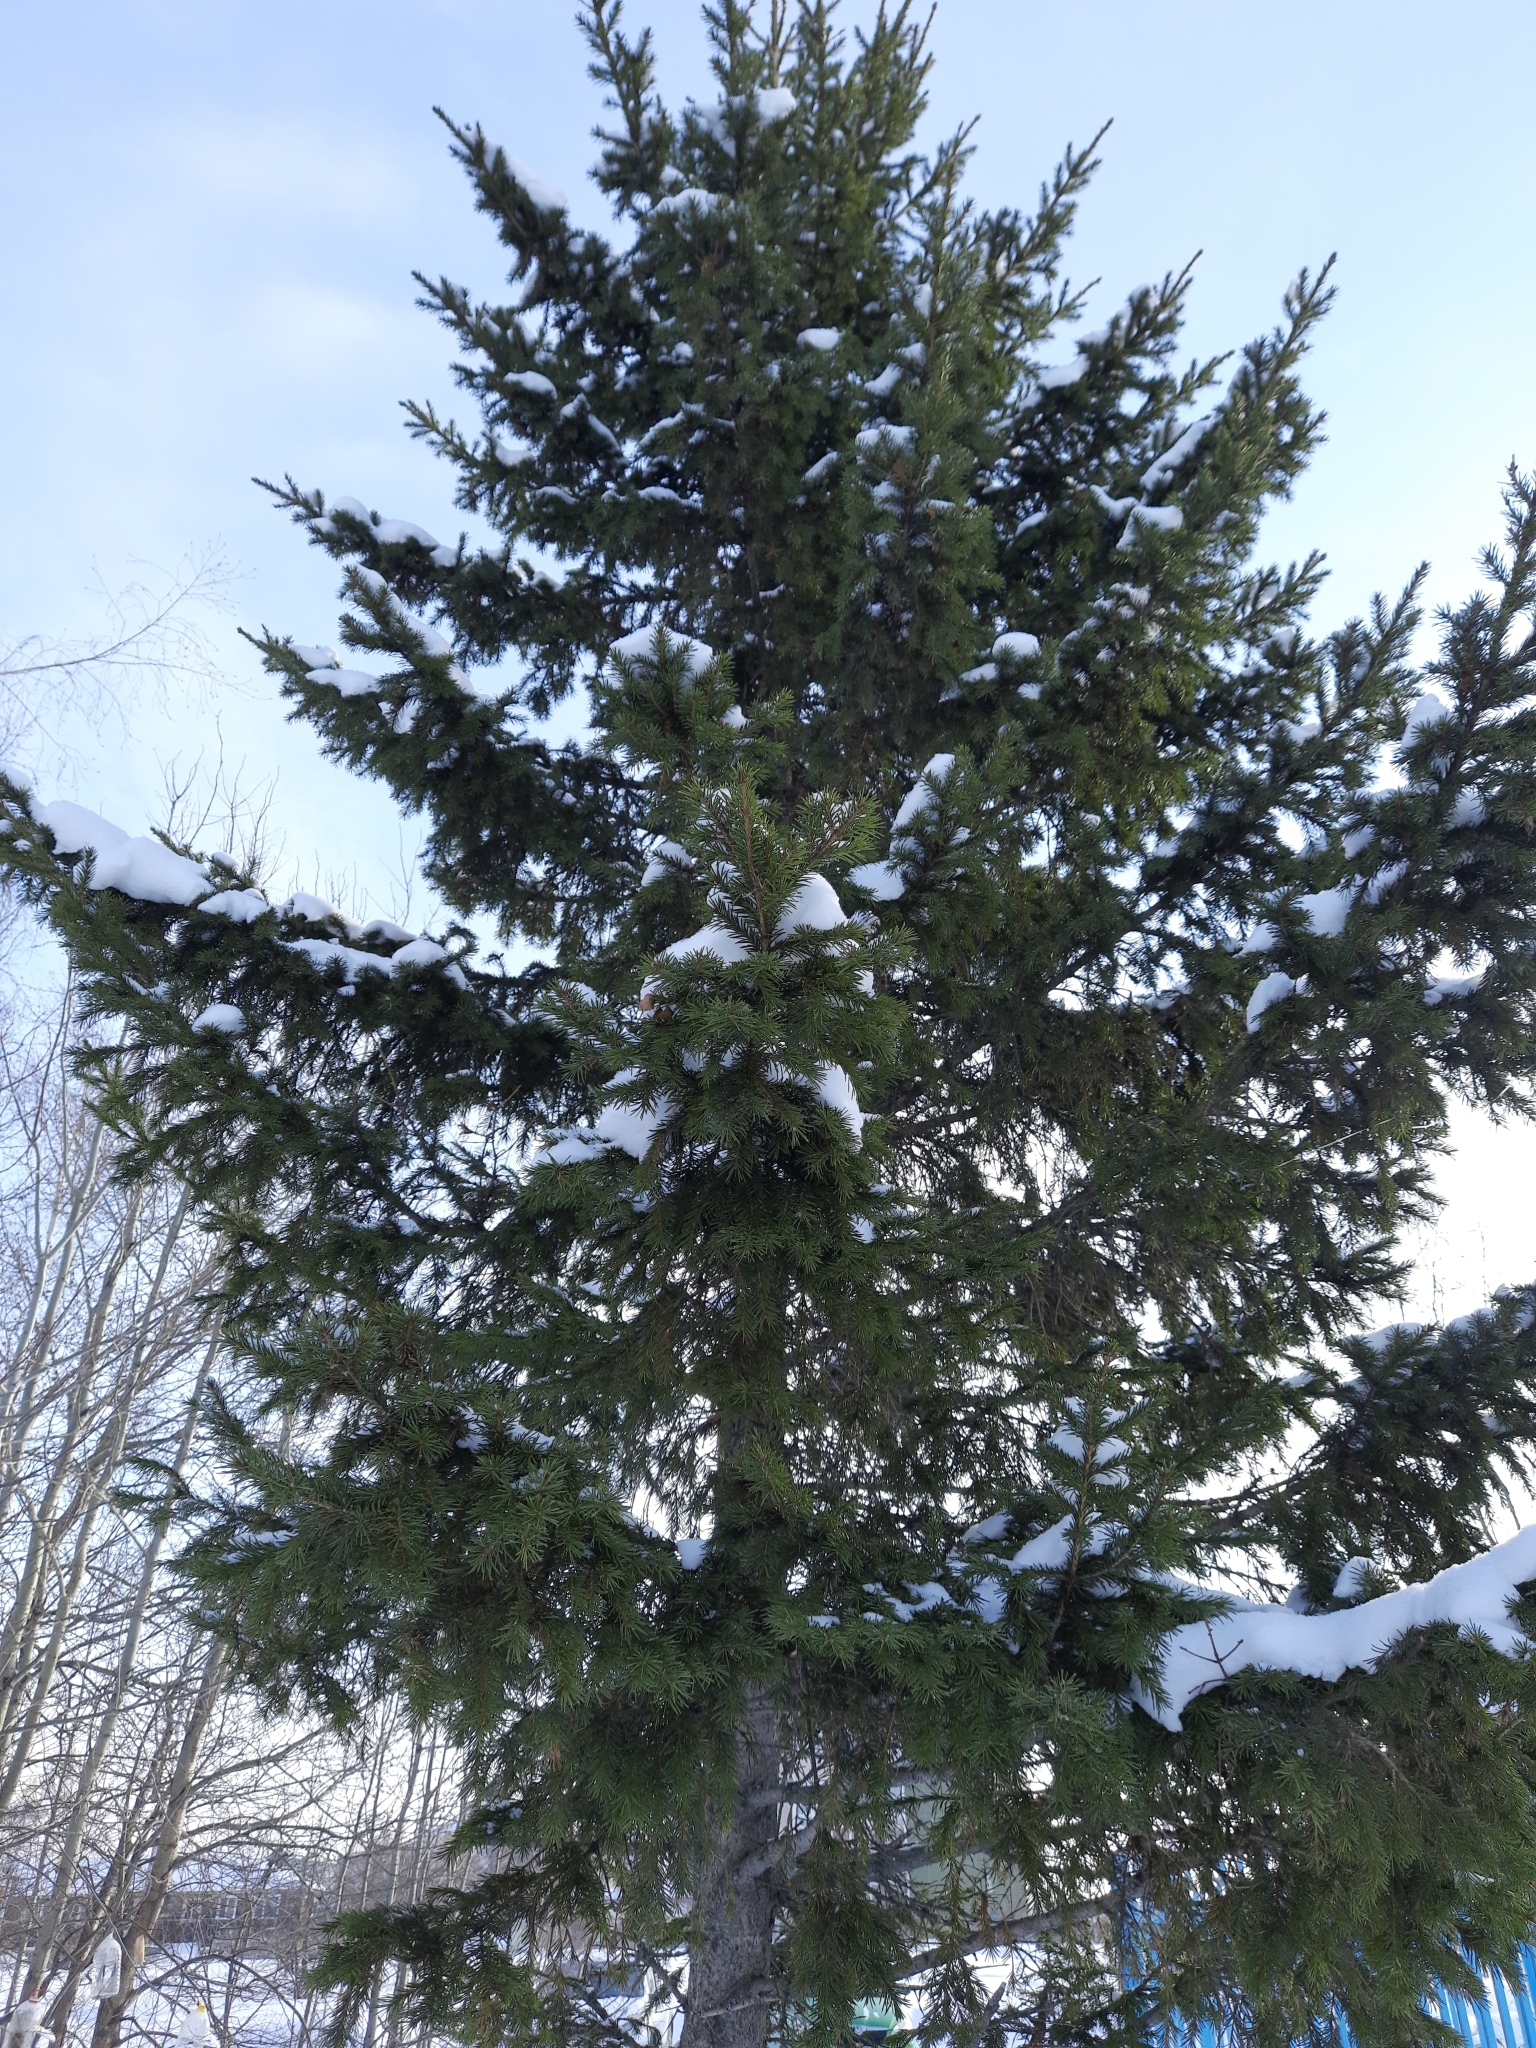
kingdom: Plantae
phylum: Tracheophyta
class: Pinopsida
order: Pinales
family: Pinaceae
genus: Picea
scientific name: Picea obovata
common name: Siberian spruce
